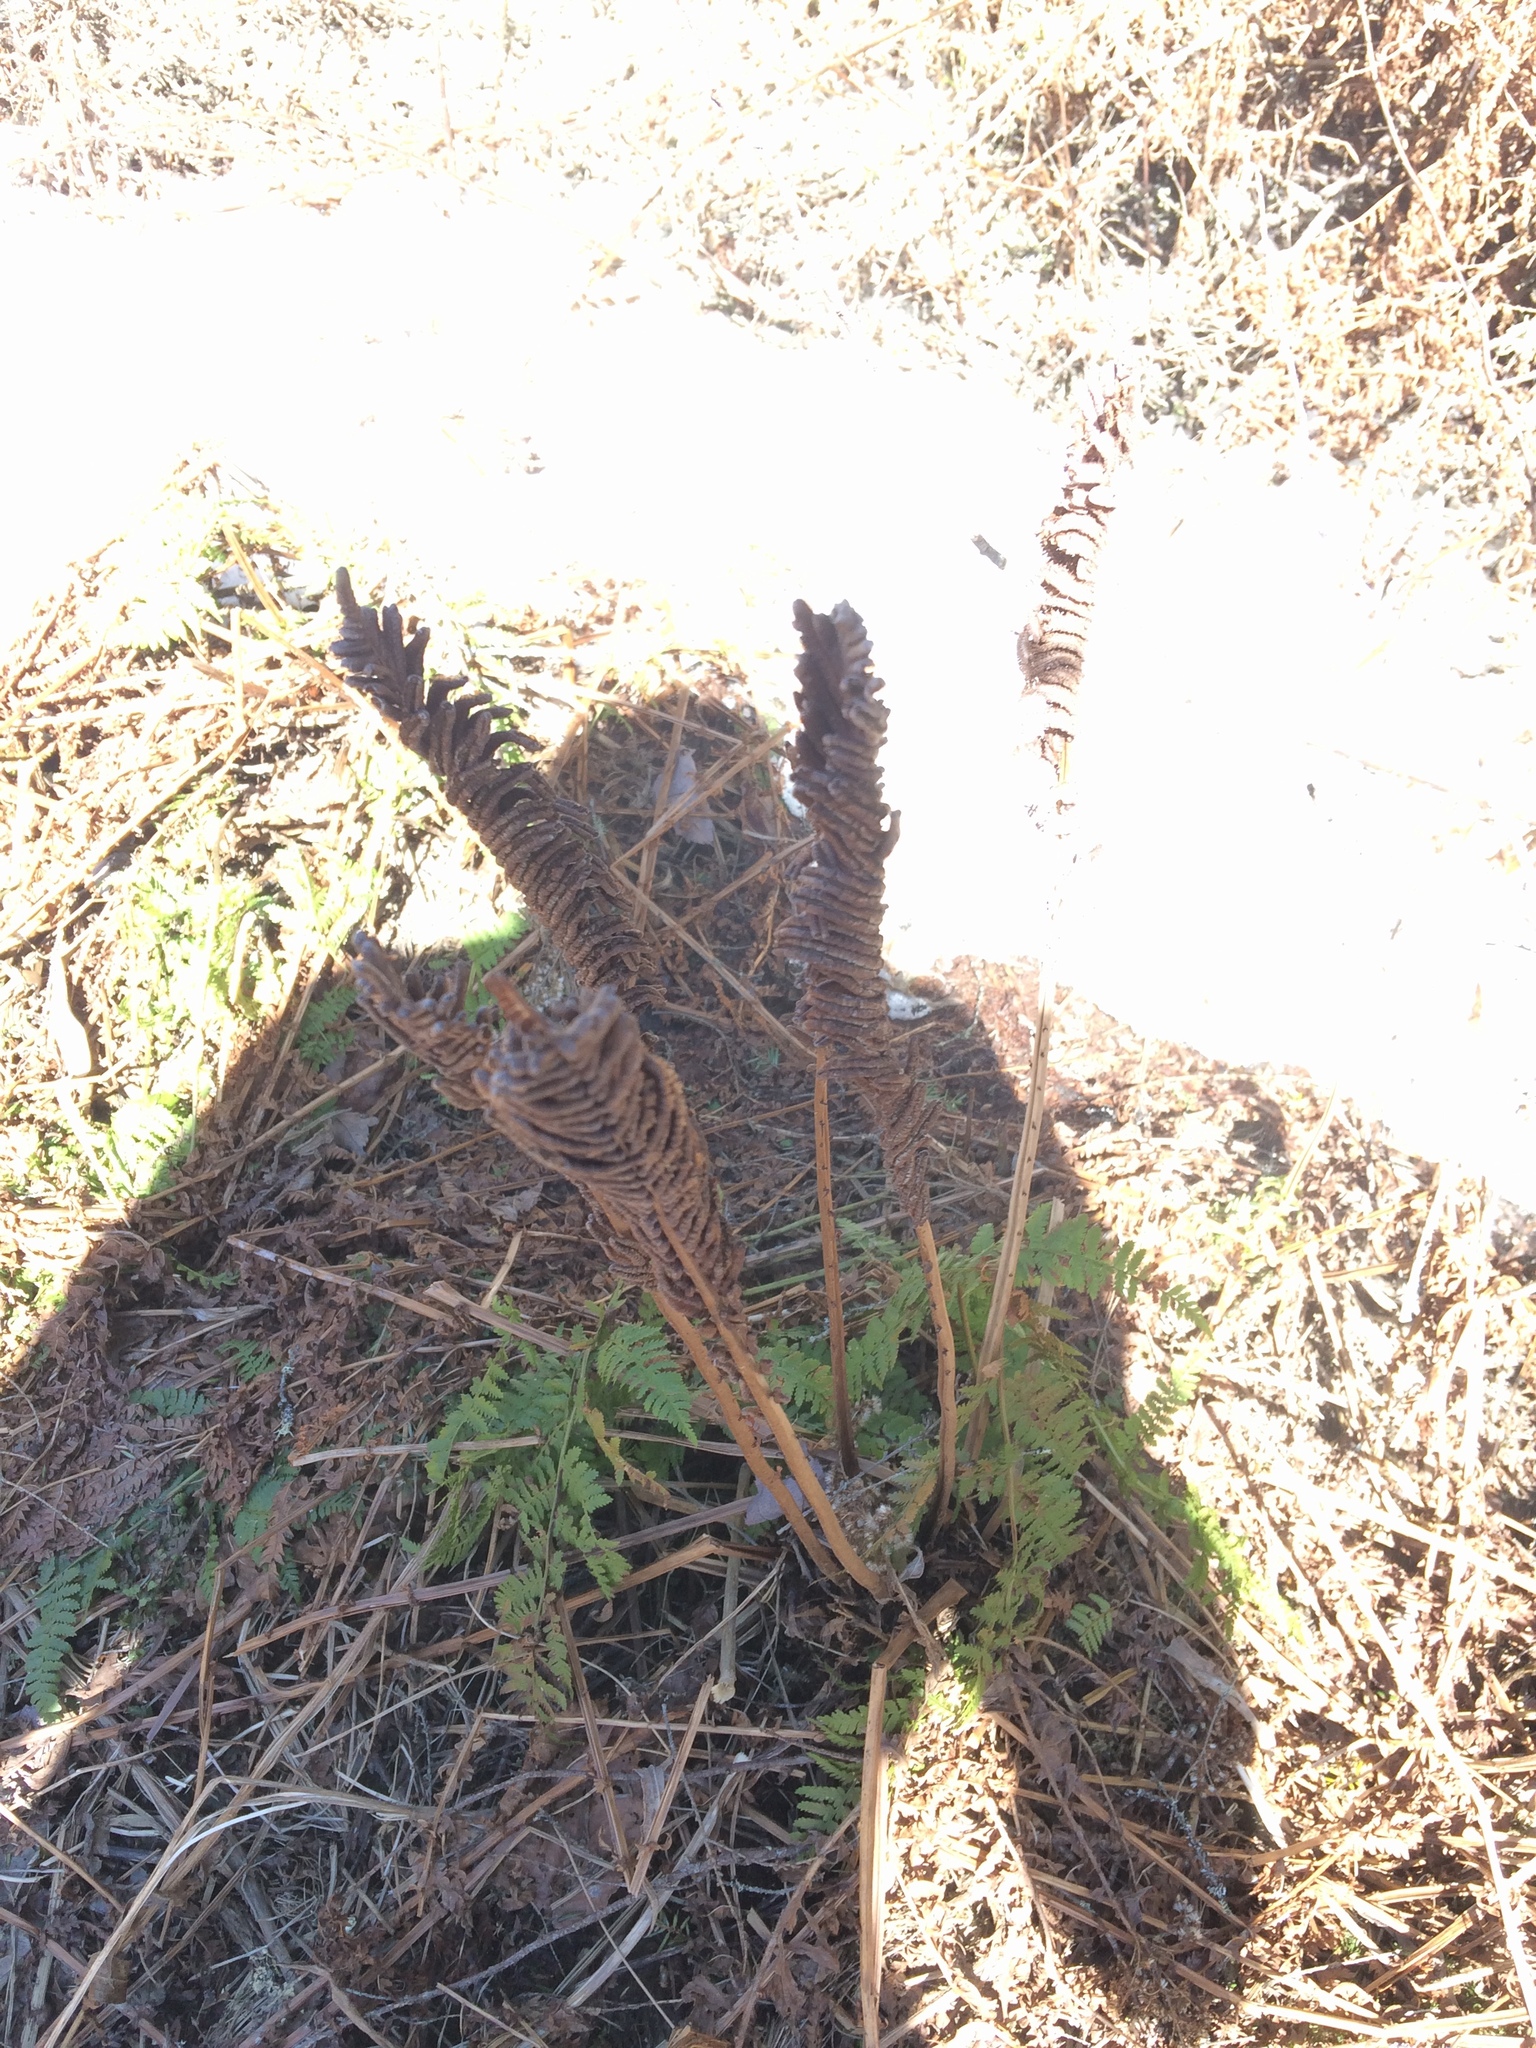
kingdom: Plantae
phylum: Tracheophyta
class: Polypodiopsida
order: Polypodiales
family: Onocleaceae
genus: Matteuccia
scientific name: Matteuccia struthiopteris
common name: Ostrich fern
